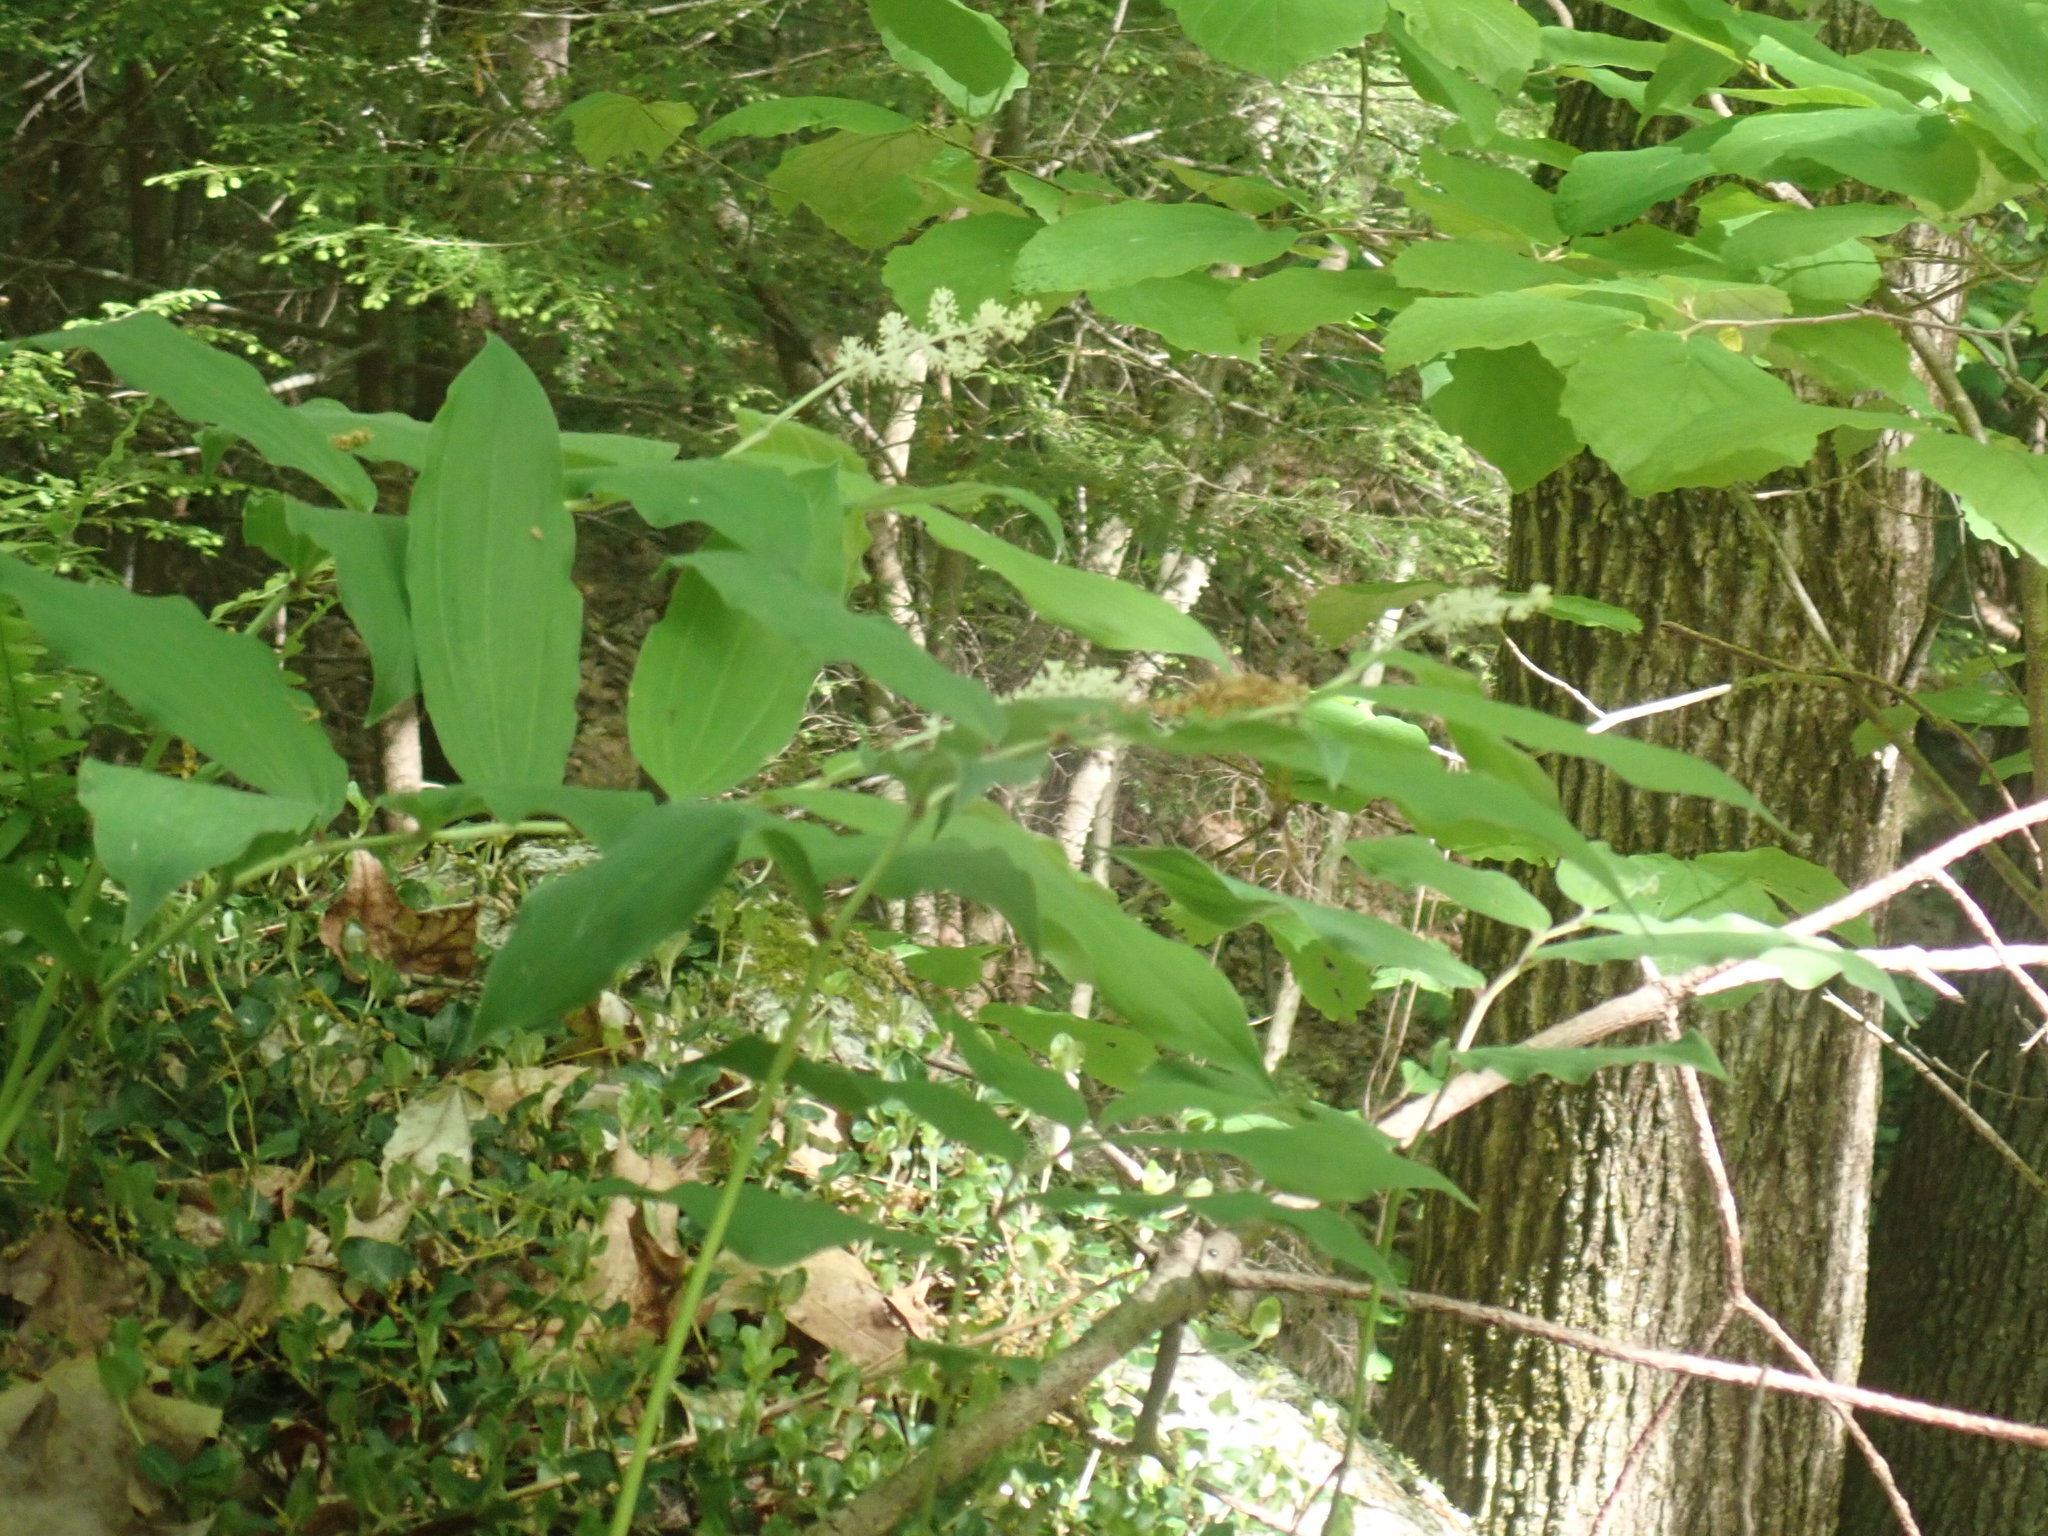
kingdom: Plantae
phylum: Tracheophyta
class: Liliopsida
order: Asparagales
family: Asparagaceae
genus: Maianthemum
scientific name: Maianthemum racemosum
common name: False spikenard
